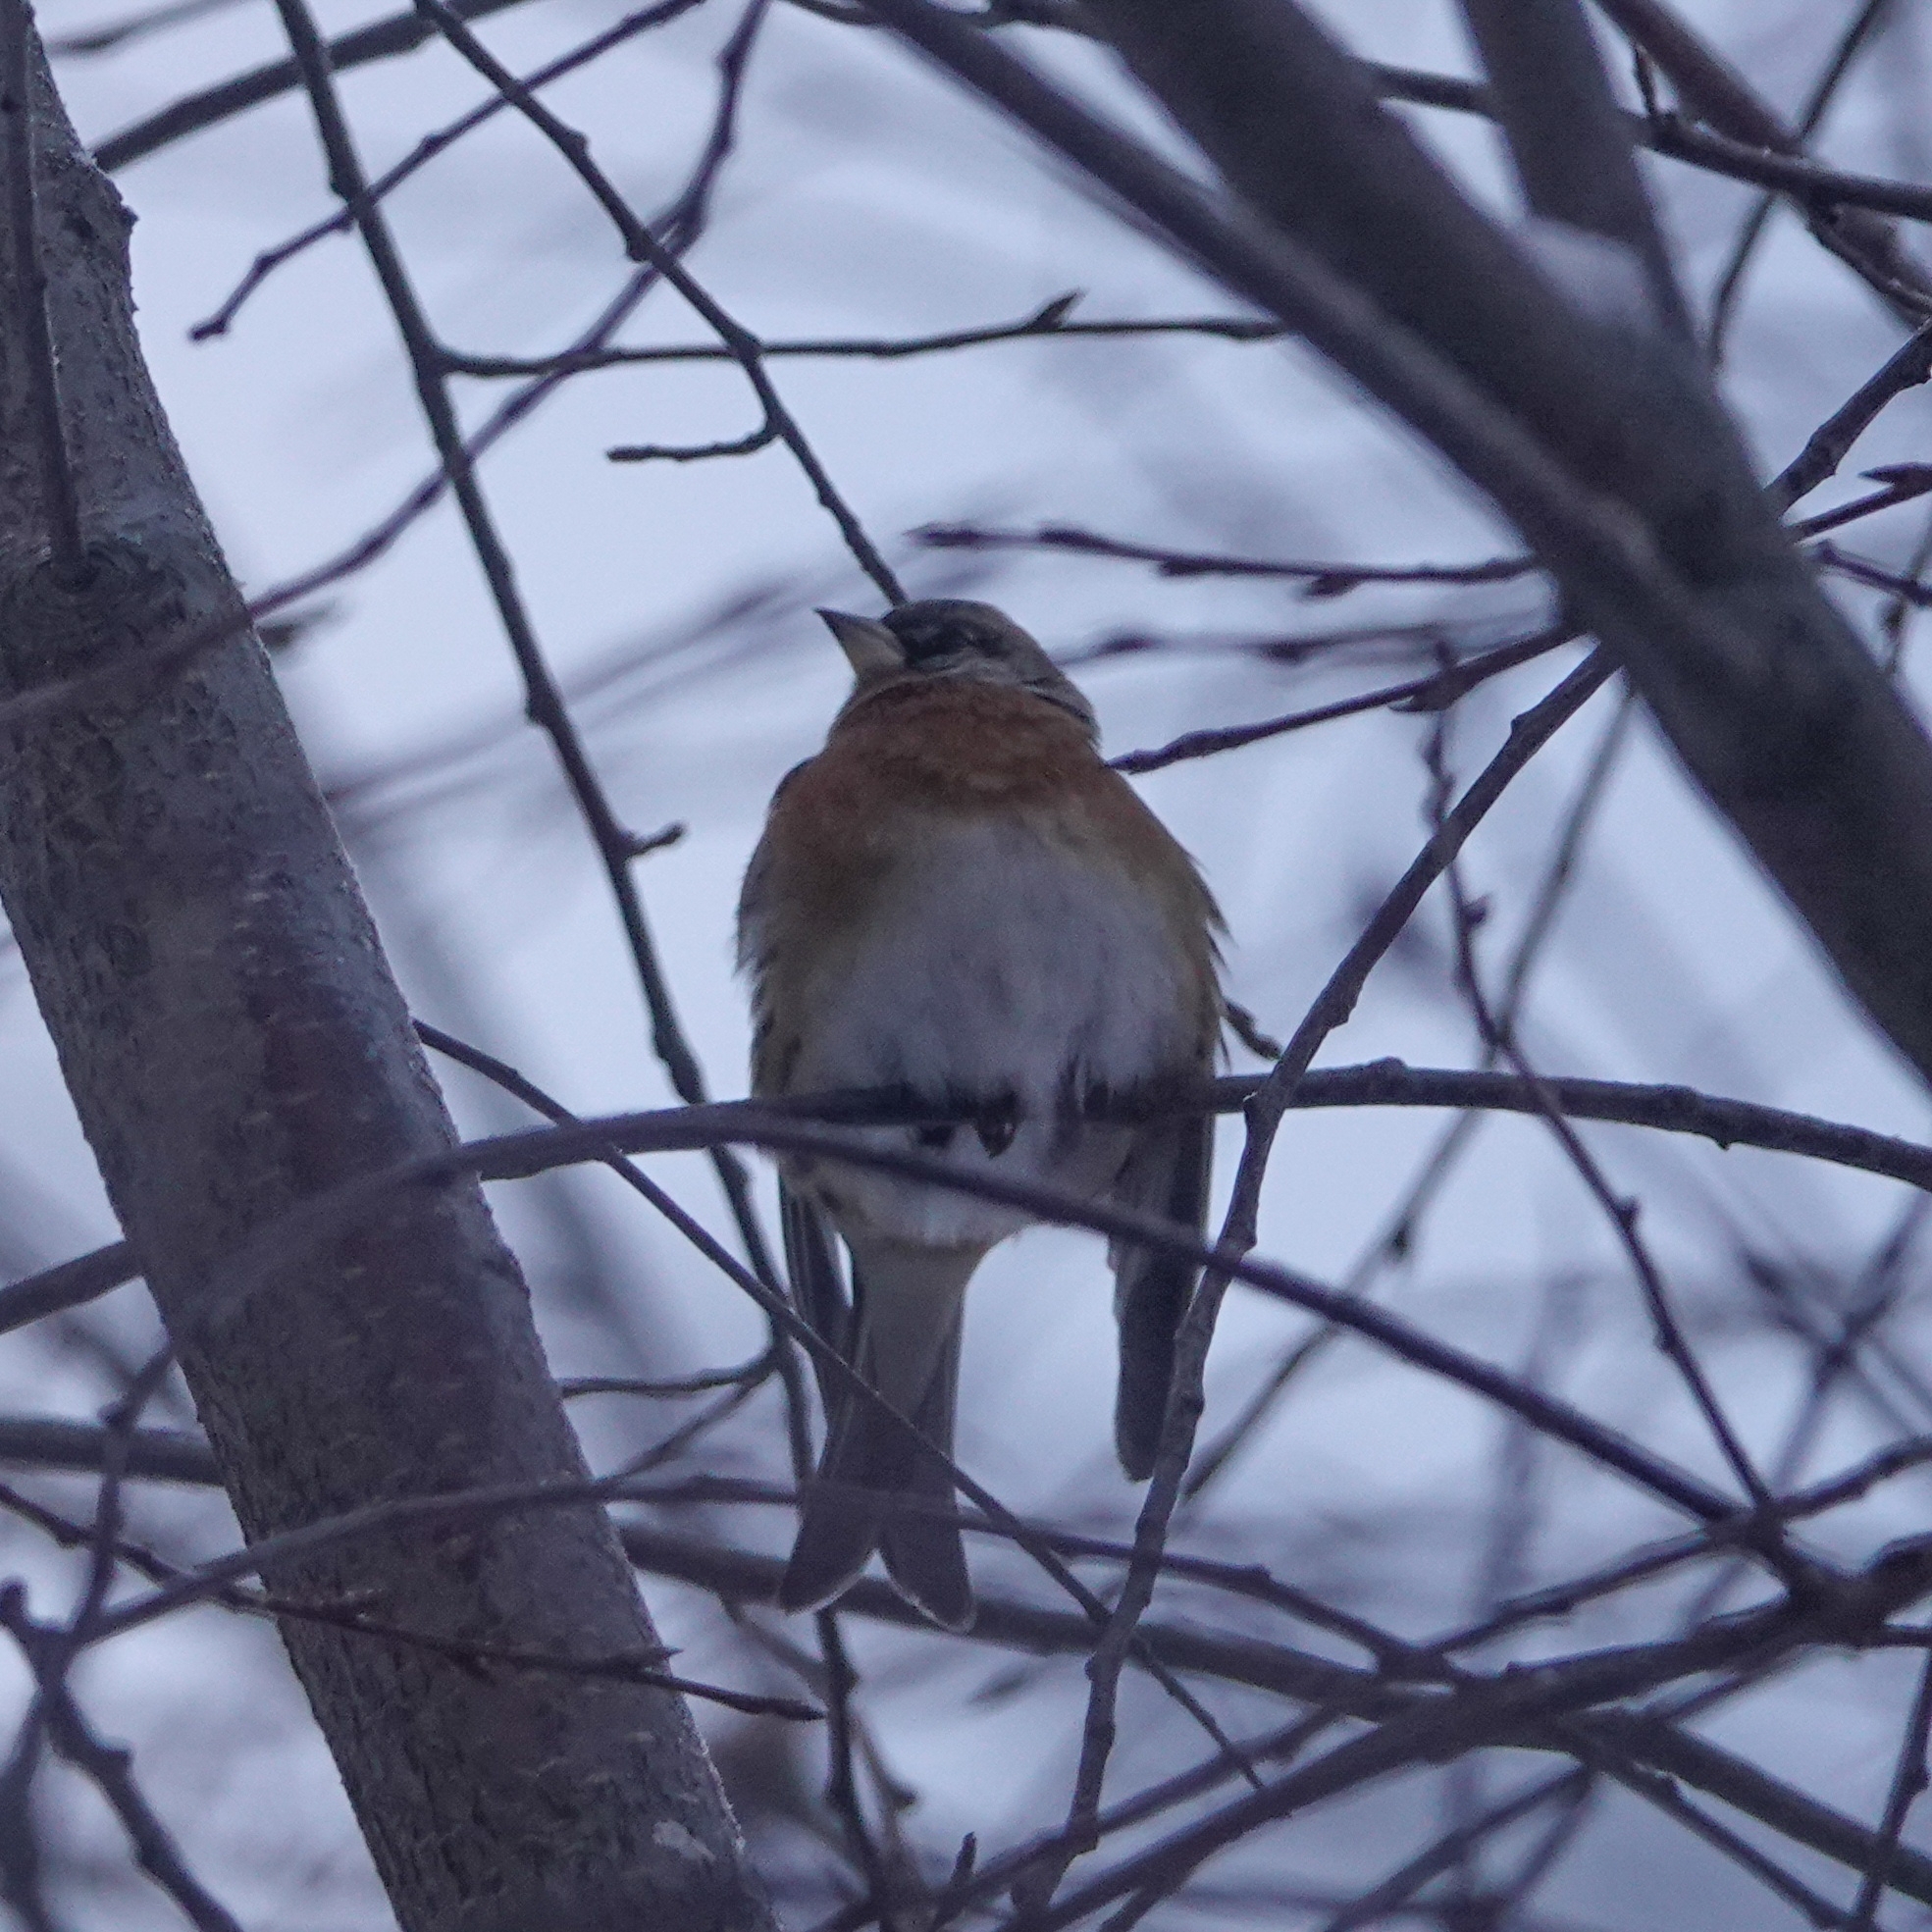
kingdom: Animalia
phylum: Chordata
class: Aves
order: Passeriformes
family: Fringillidae
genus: Fringilla
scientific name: Fringilla montifringilla
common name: Brambling
